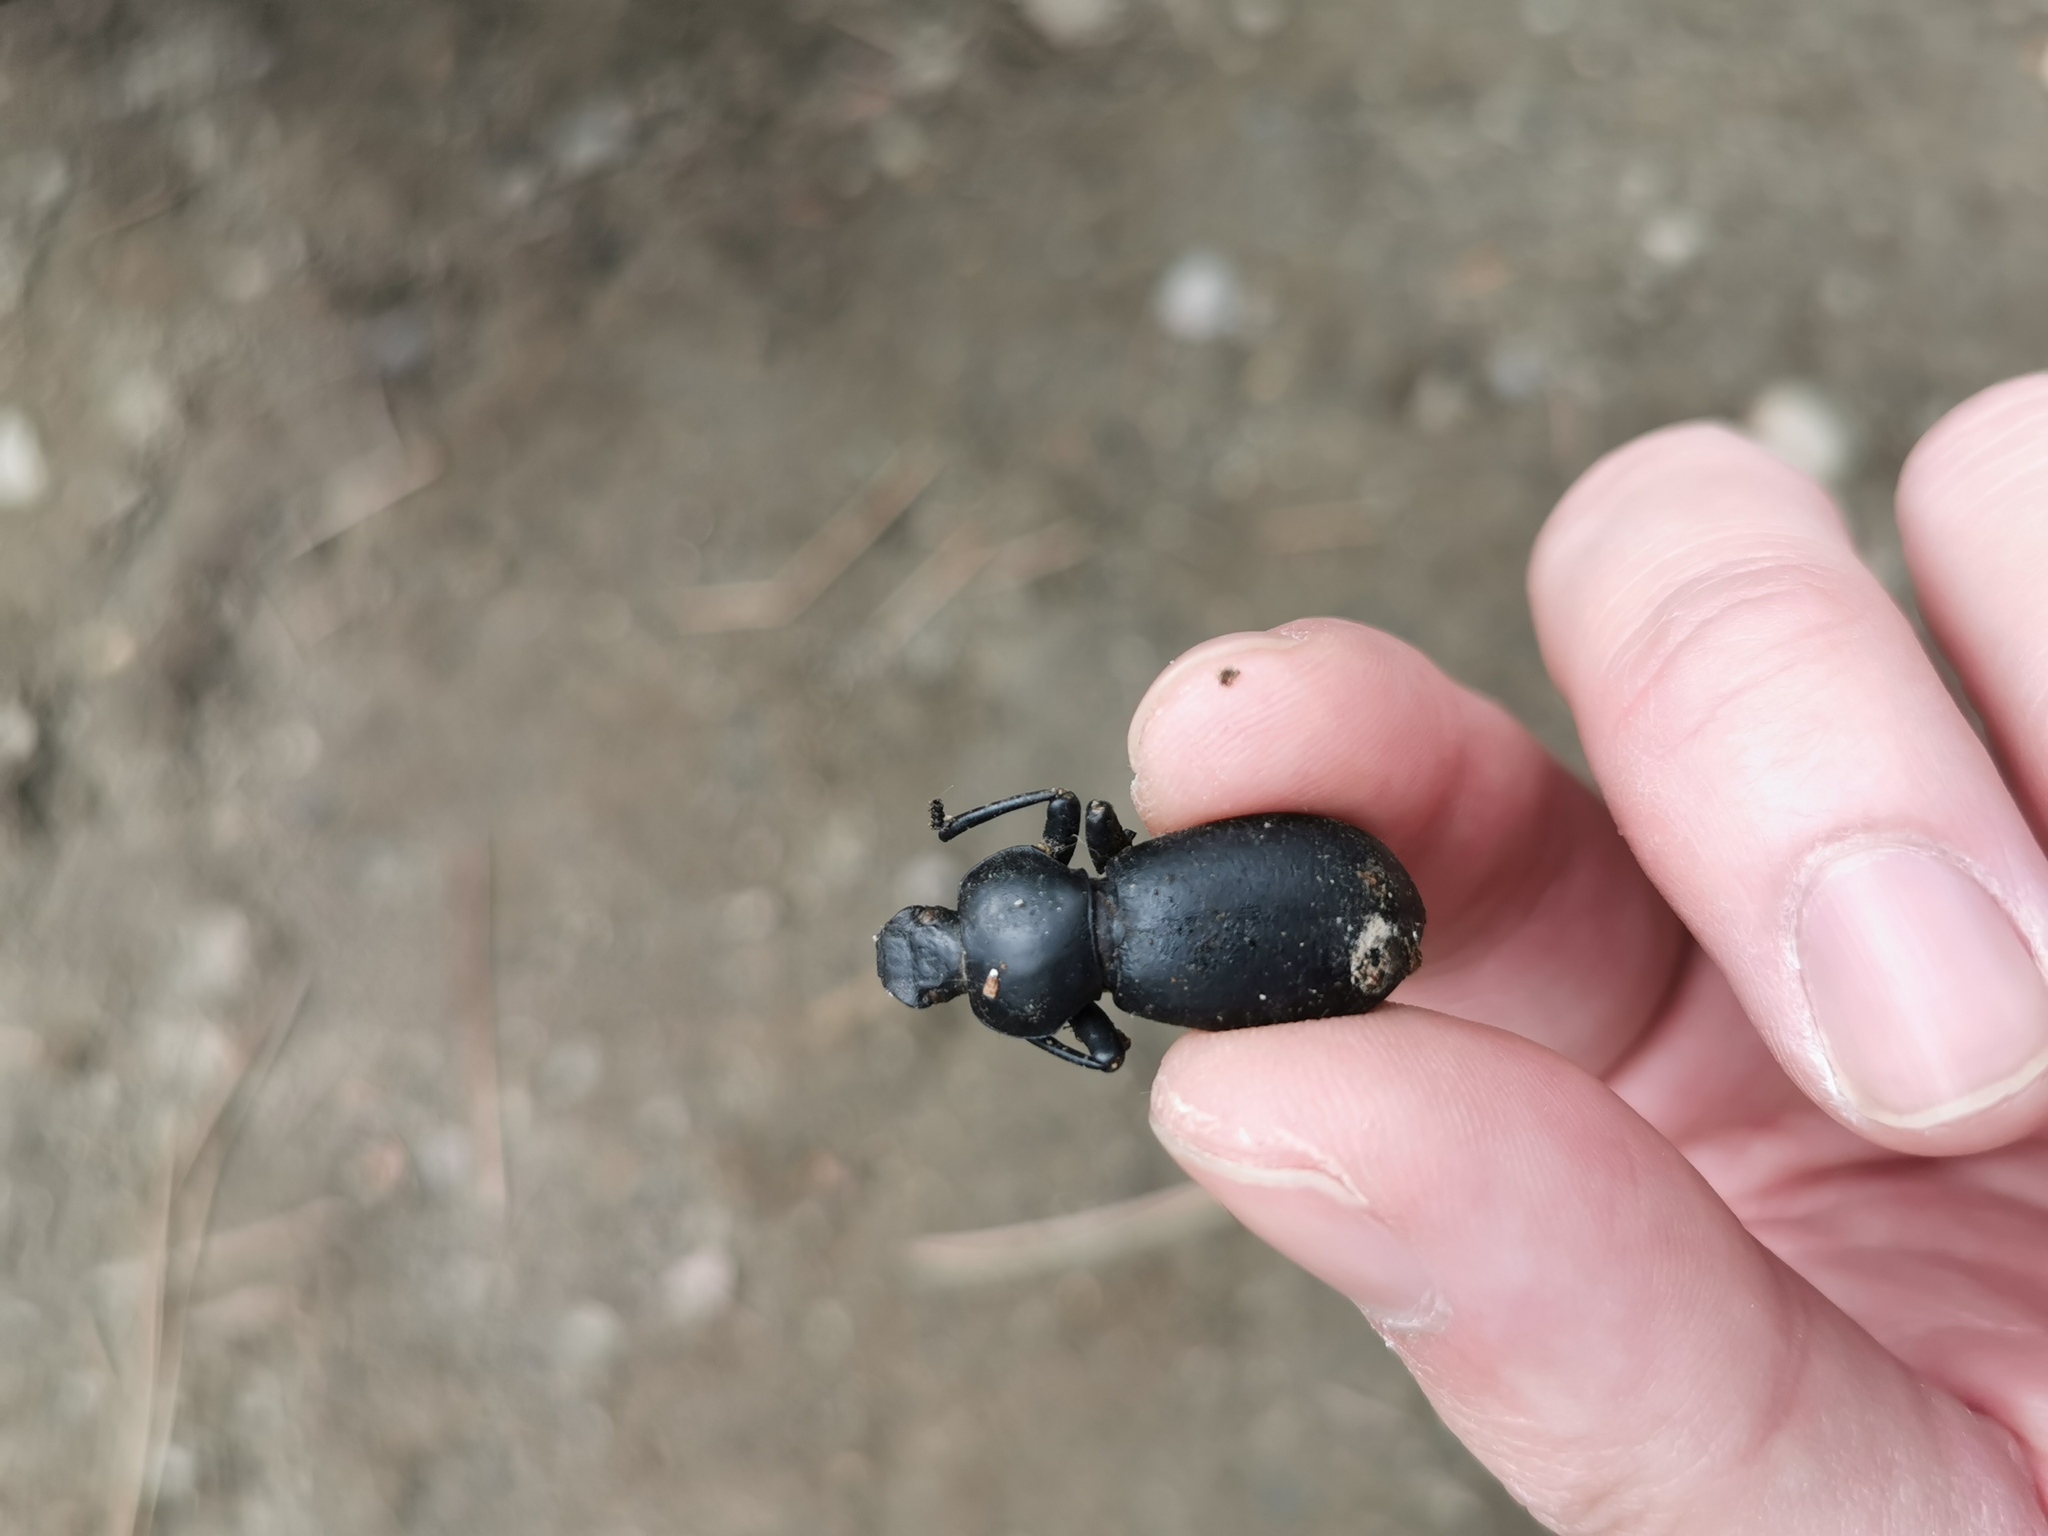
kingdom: Animalia
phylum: Arthropoda
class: Insecta
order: Coleoptera
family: Tenebrionidae
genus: Coelocnemis
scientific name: Coelocnemis dilaticollis
